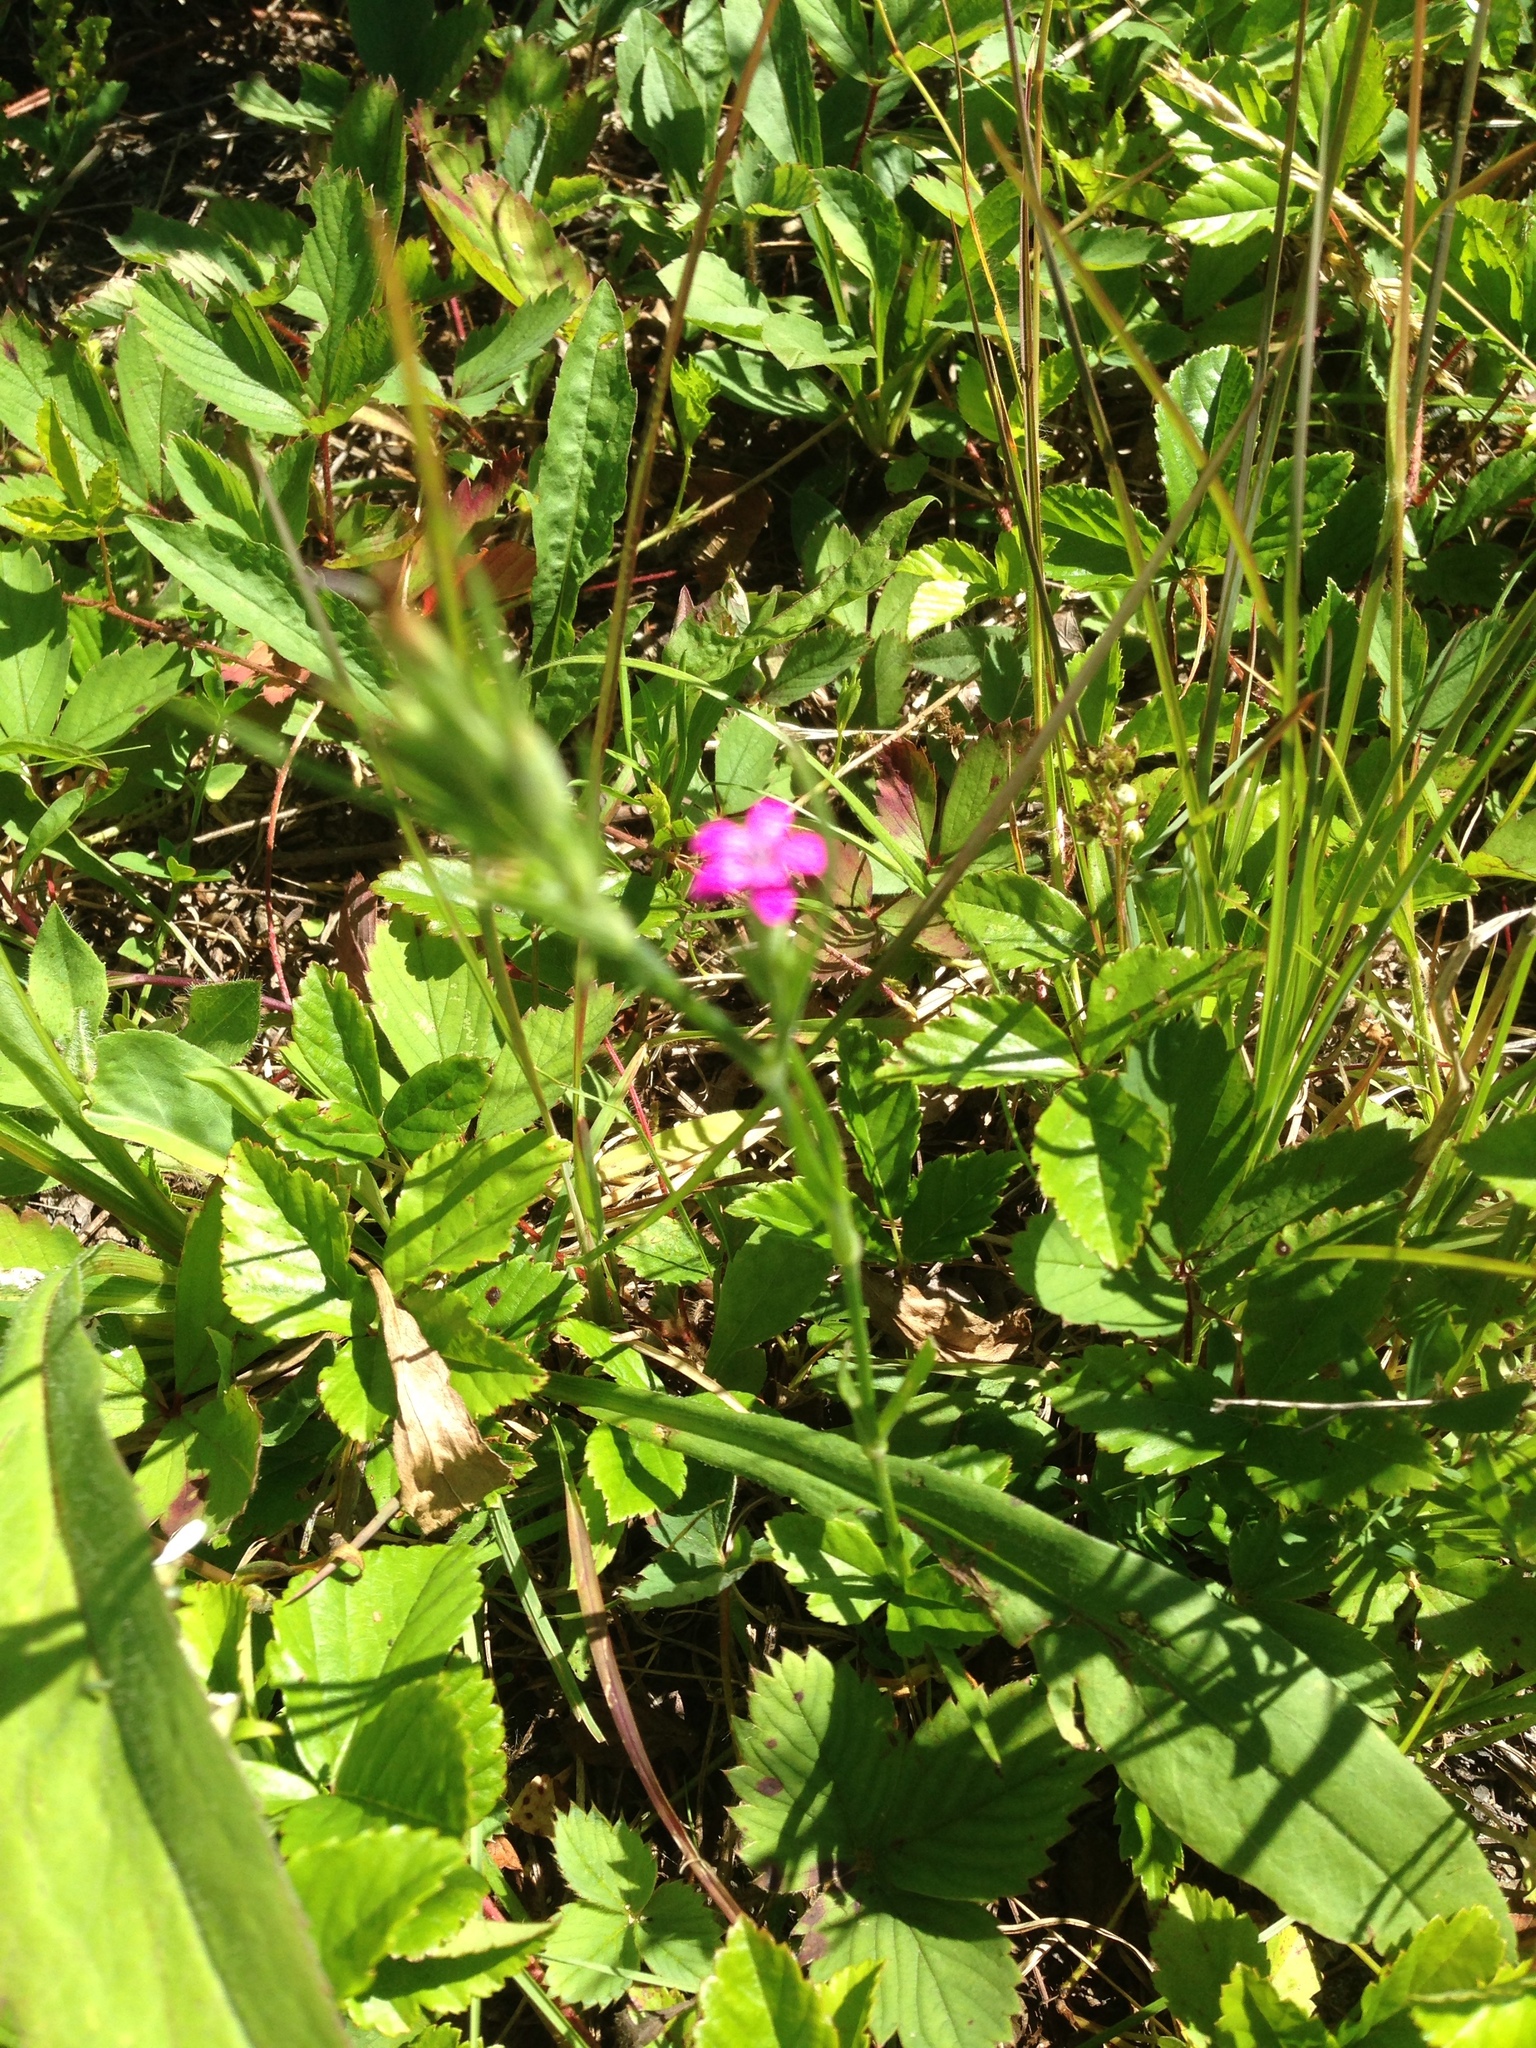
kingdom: Plantae
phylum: Tracheophyta
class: Magnoliopsida
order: Caryophyllales
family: Caryophyllaceae
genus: Dianthus
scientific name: Dianthus armeria
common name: Deptford pink
